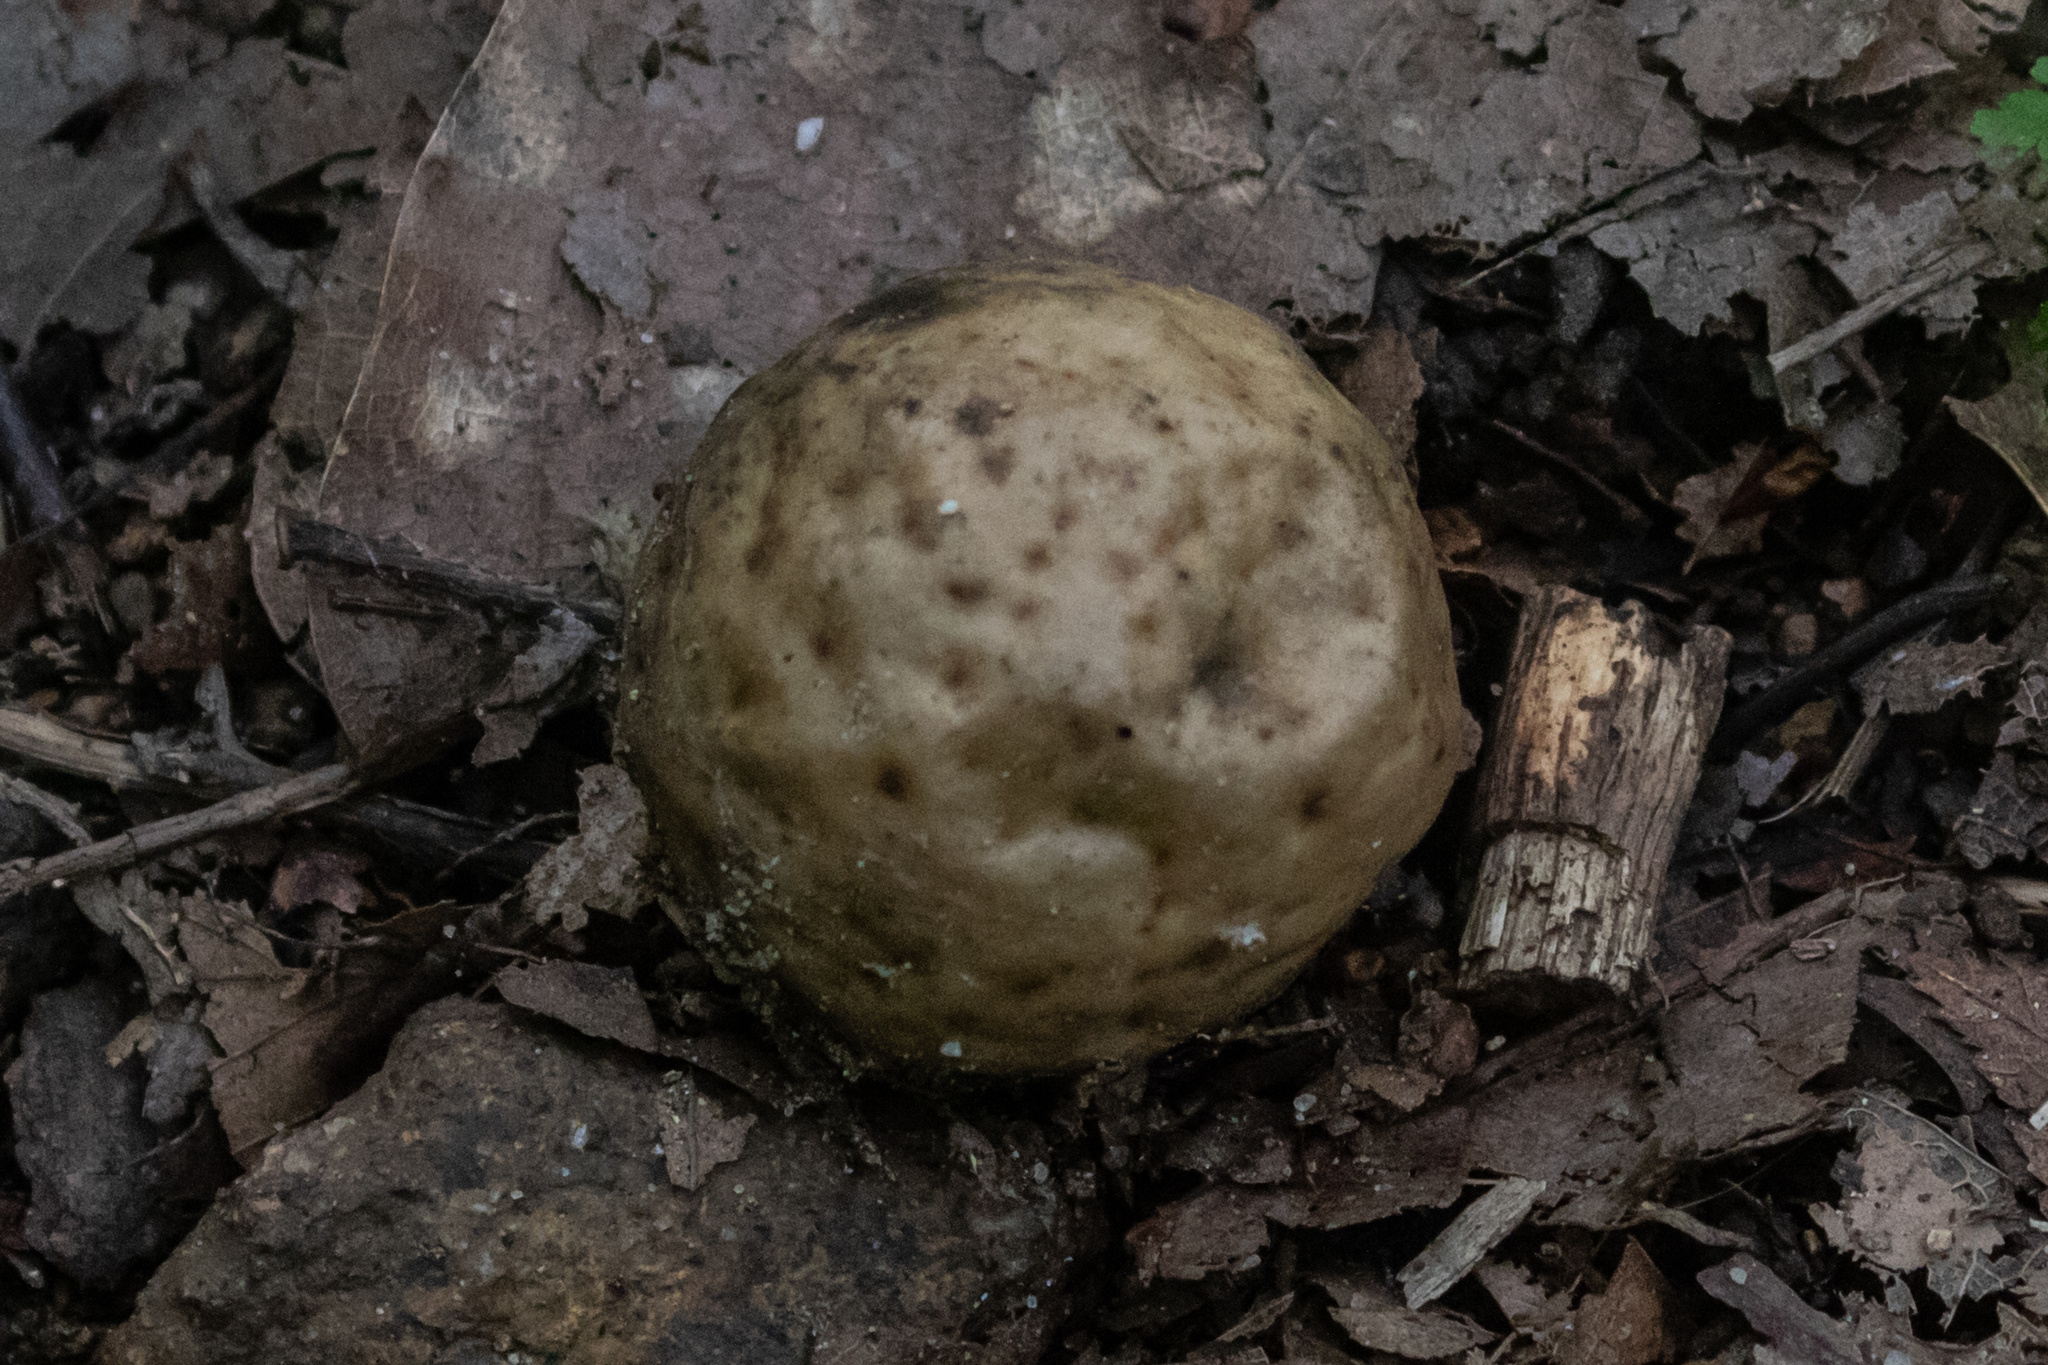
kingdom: Animalia
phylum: Arthropoda
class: Insecta
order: Hymenoptera
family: Cynipidae
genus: Amphibolips
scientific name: Amphibolips
